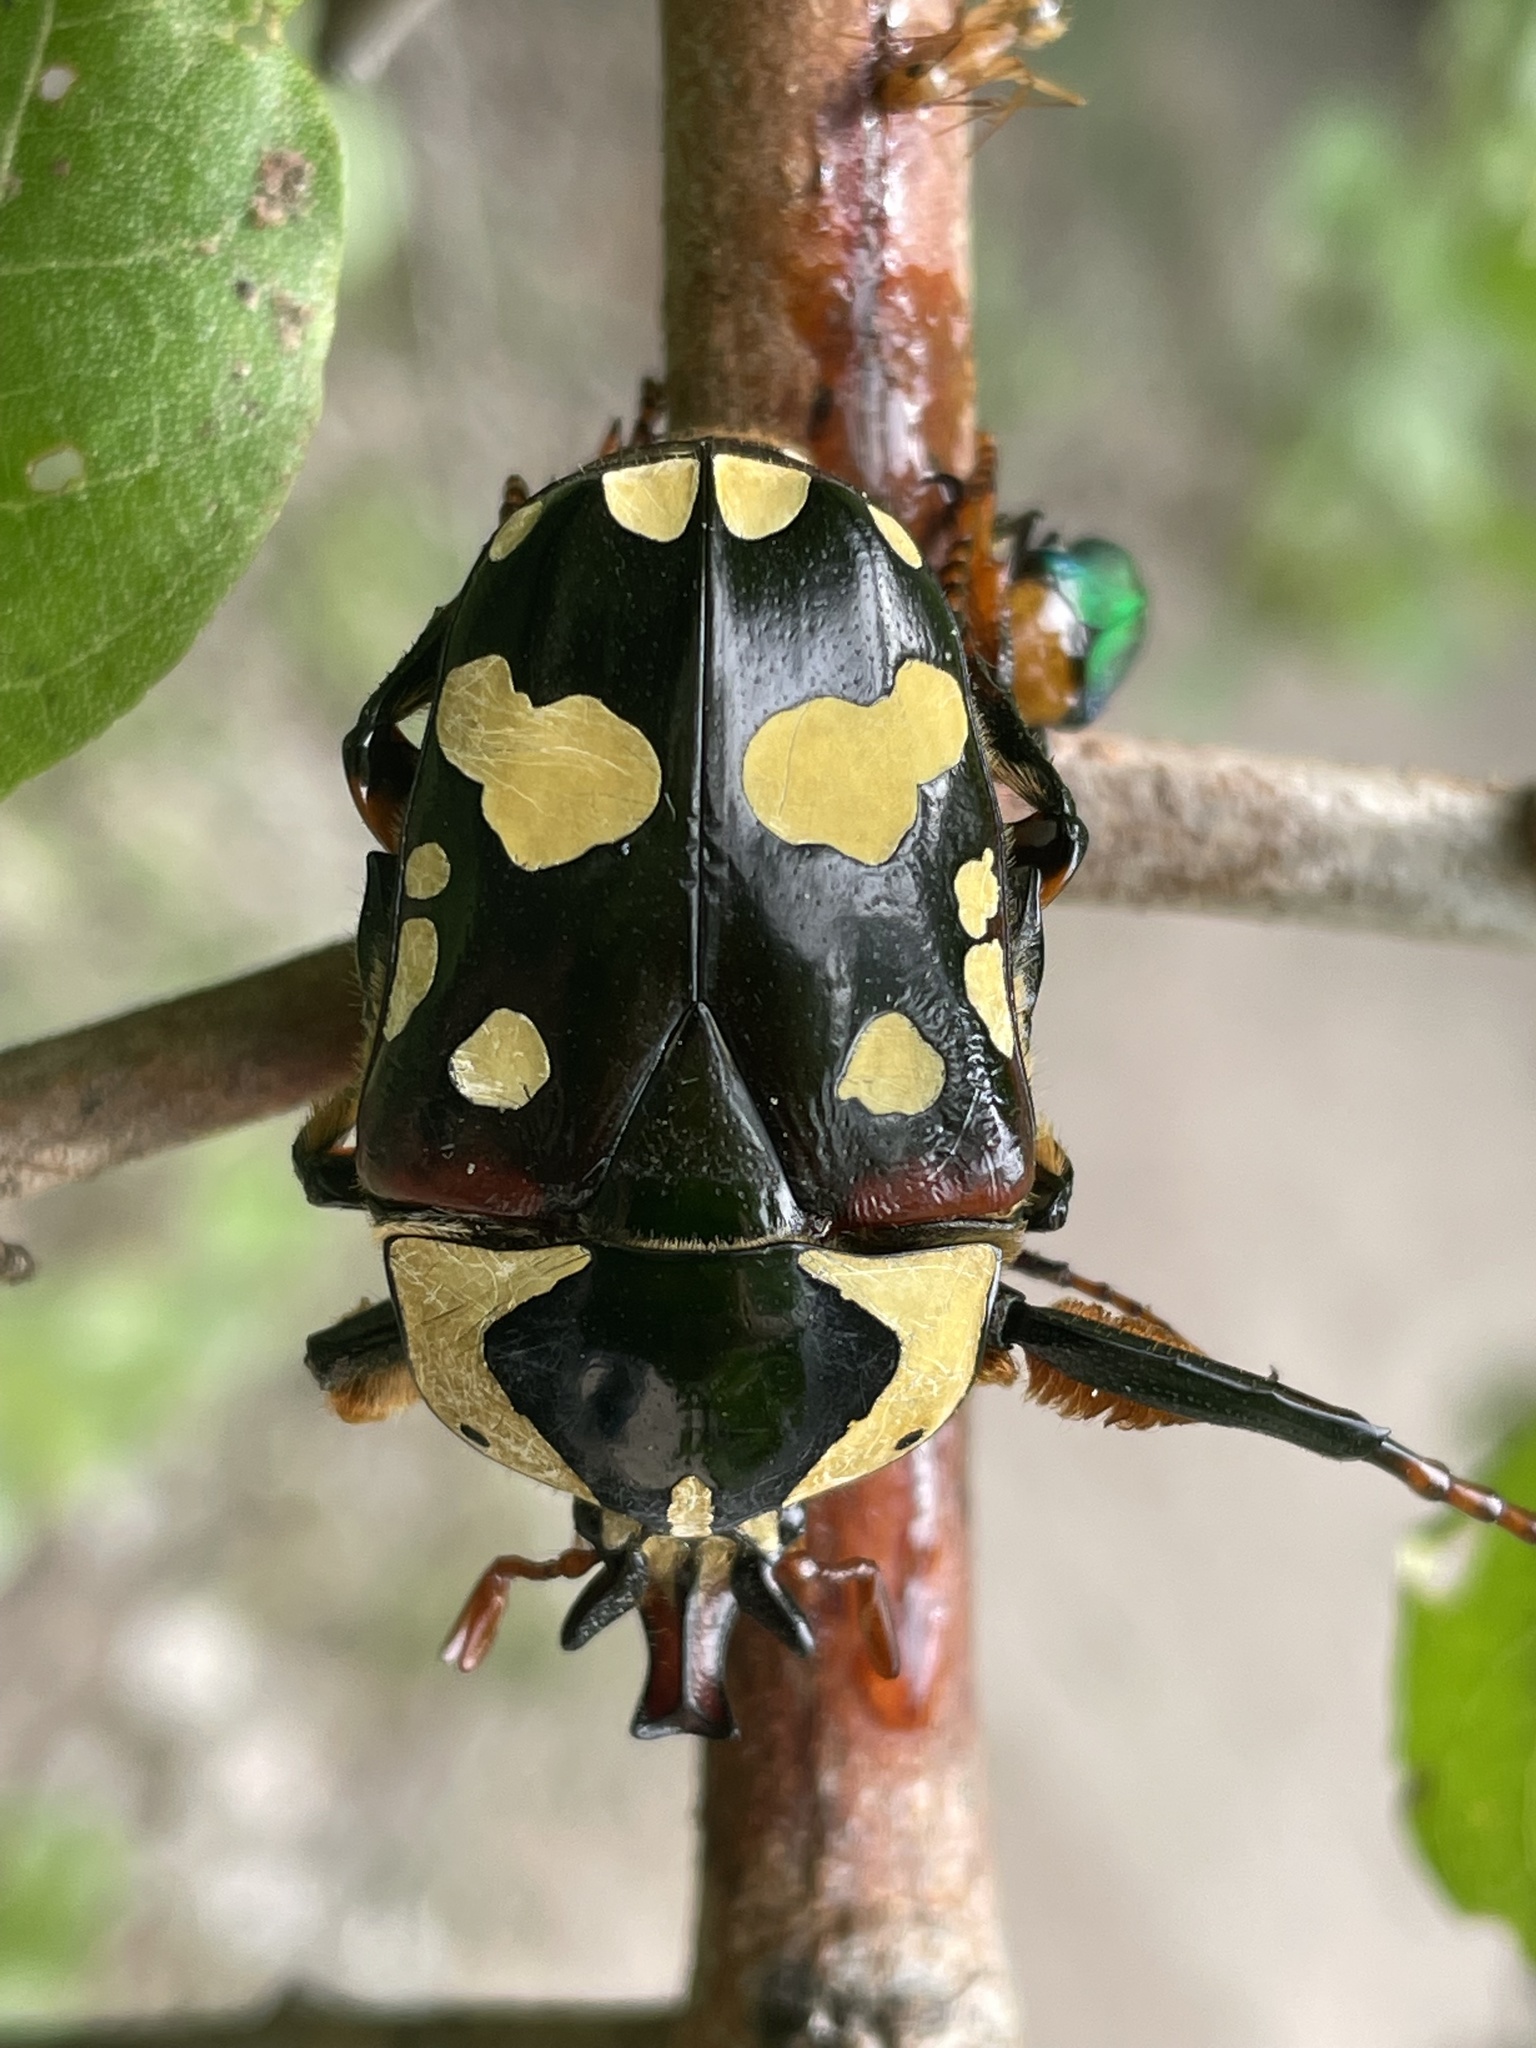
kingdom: Animalia
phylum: Arthropoda
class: Insecta
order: Coleoptera
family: Scarabaeidae
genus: Cheirolasia
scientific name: Cheirolasia burkei
